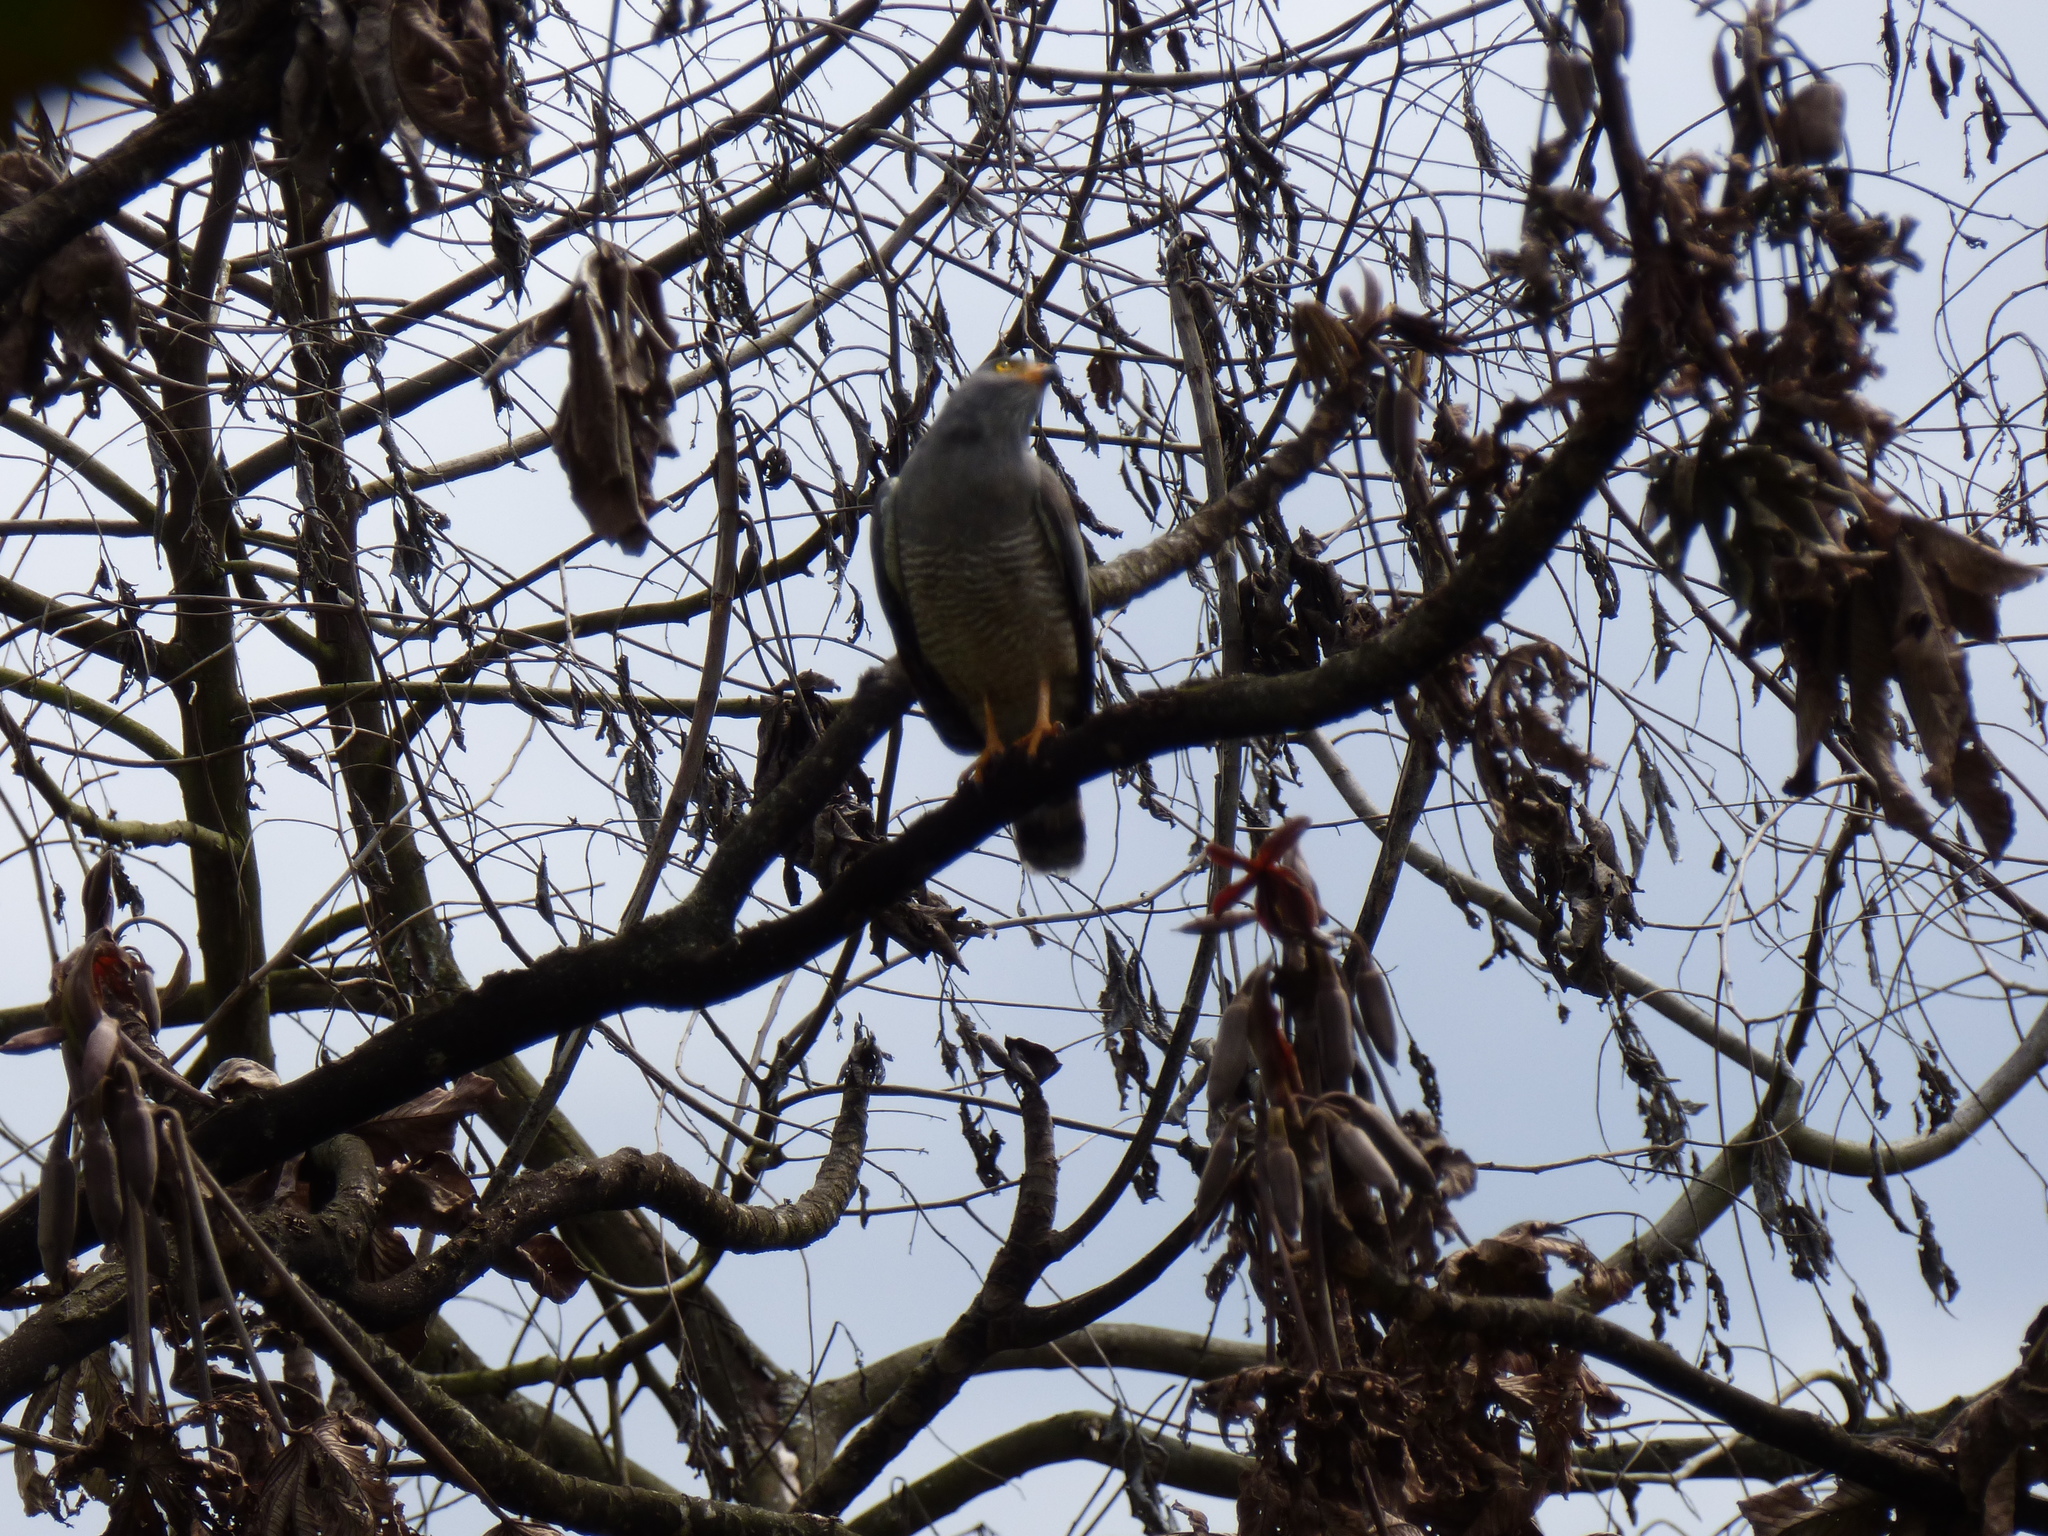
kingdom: Animalia
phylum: Chordata
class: Aves
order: Accipitriformes
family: Accipitridae
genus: Rupornis
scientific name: Rupornis magnirostris
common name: Roadside hawk
